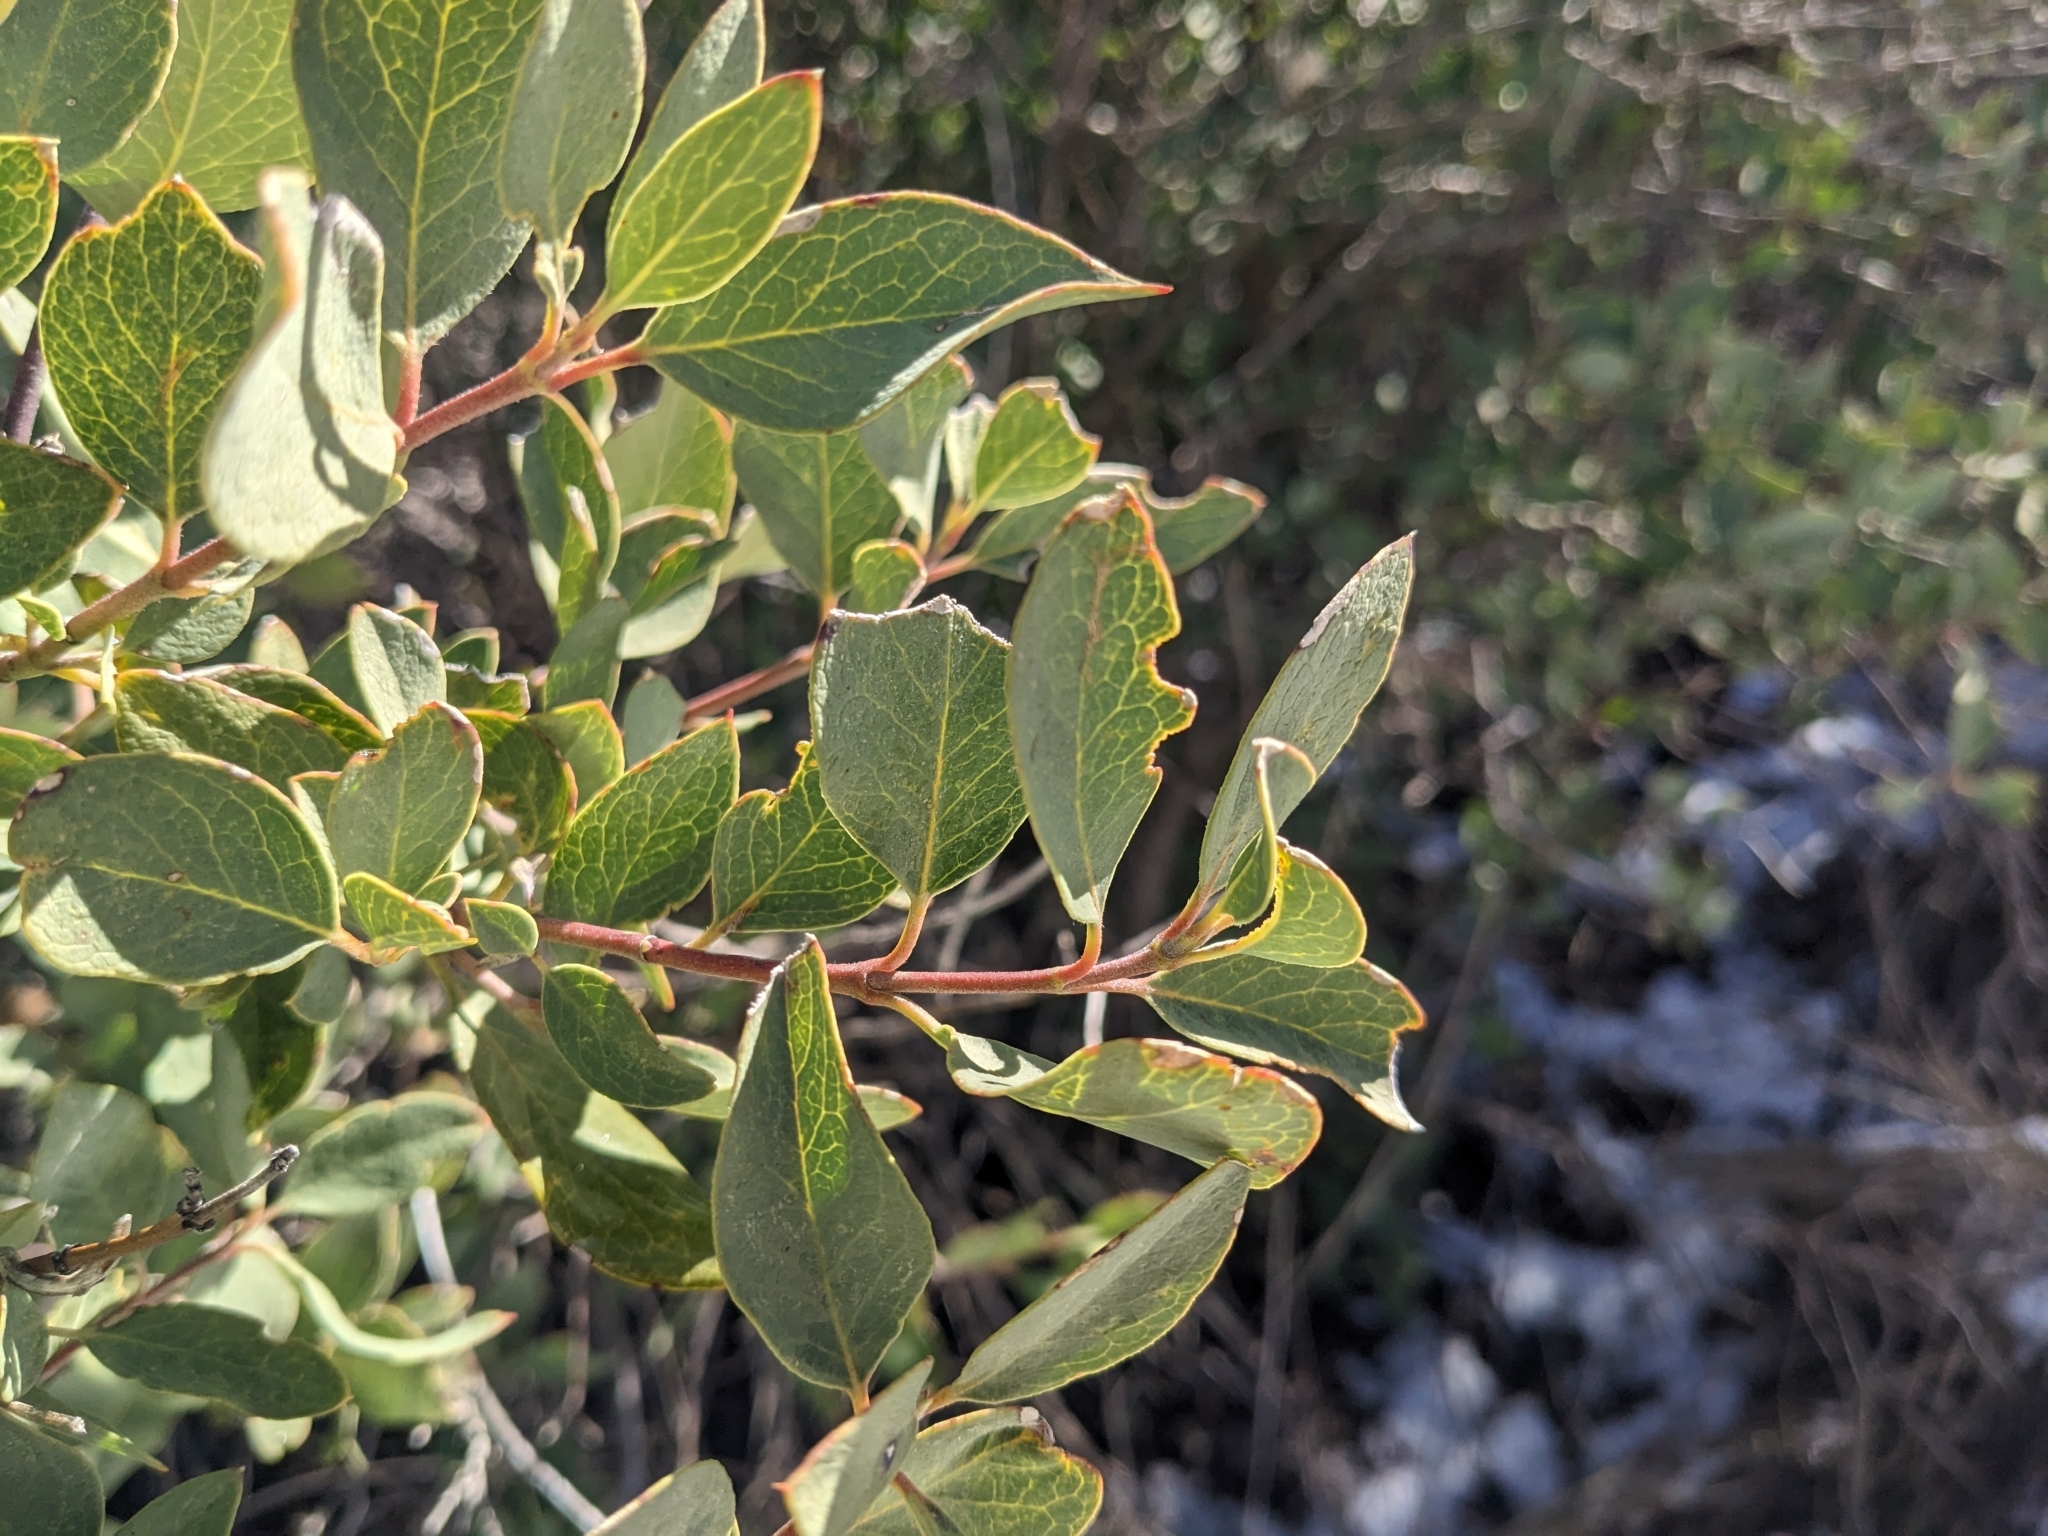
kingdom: Plantae
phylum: Tracheophyta
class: Magnoliopsida
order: Garryales
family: Garryaceae
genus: Garrya
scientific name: Garrya wrightii
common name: Wright's silktassel
